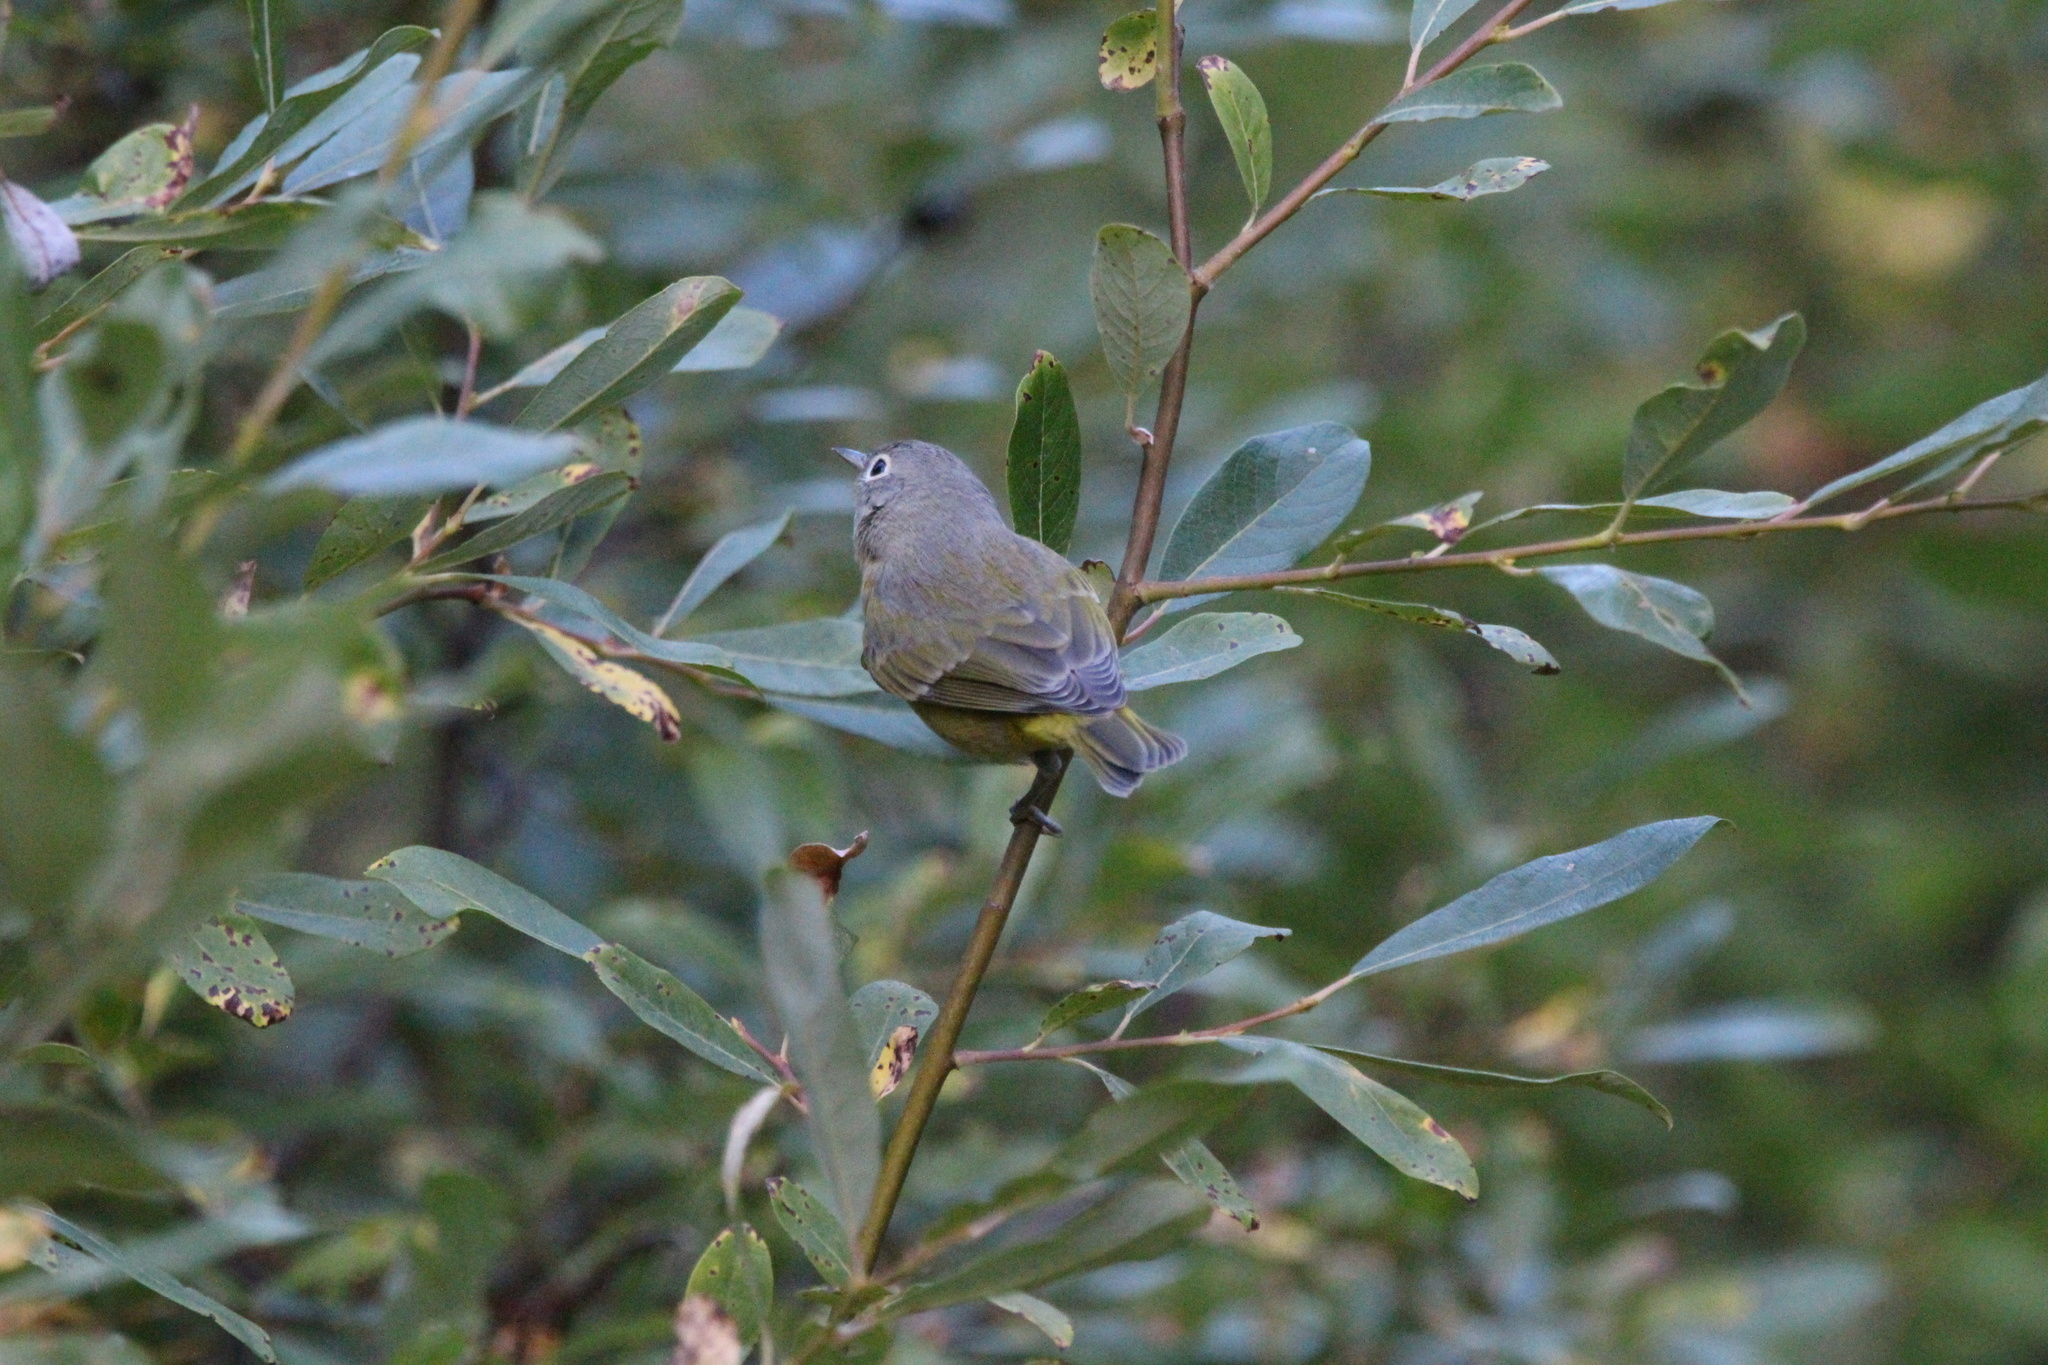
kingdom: Animalia
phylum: Chordata
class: Aves
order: Passeriformes
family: Parulidae
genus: Leiothlypis
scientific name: Leiothlypis ruficapilla
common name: Nashville warbler
